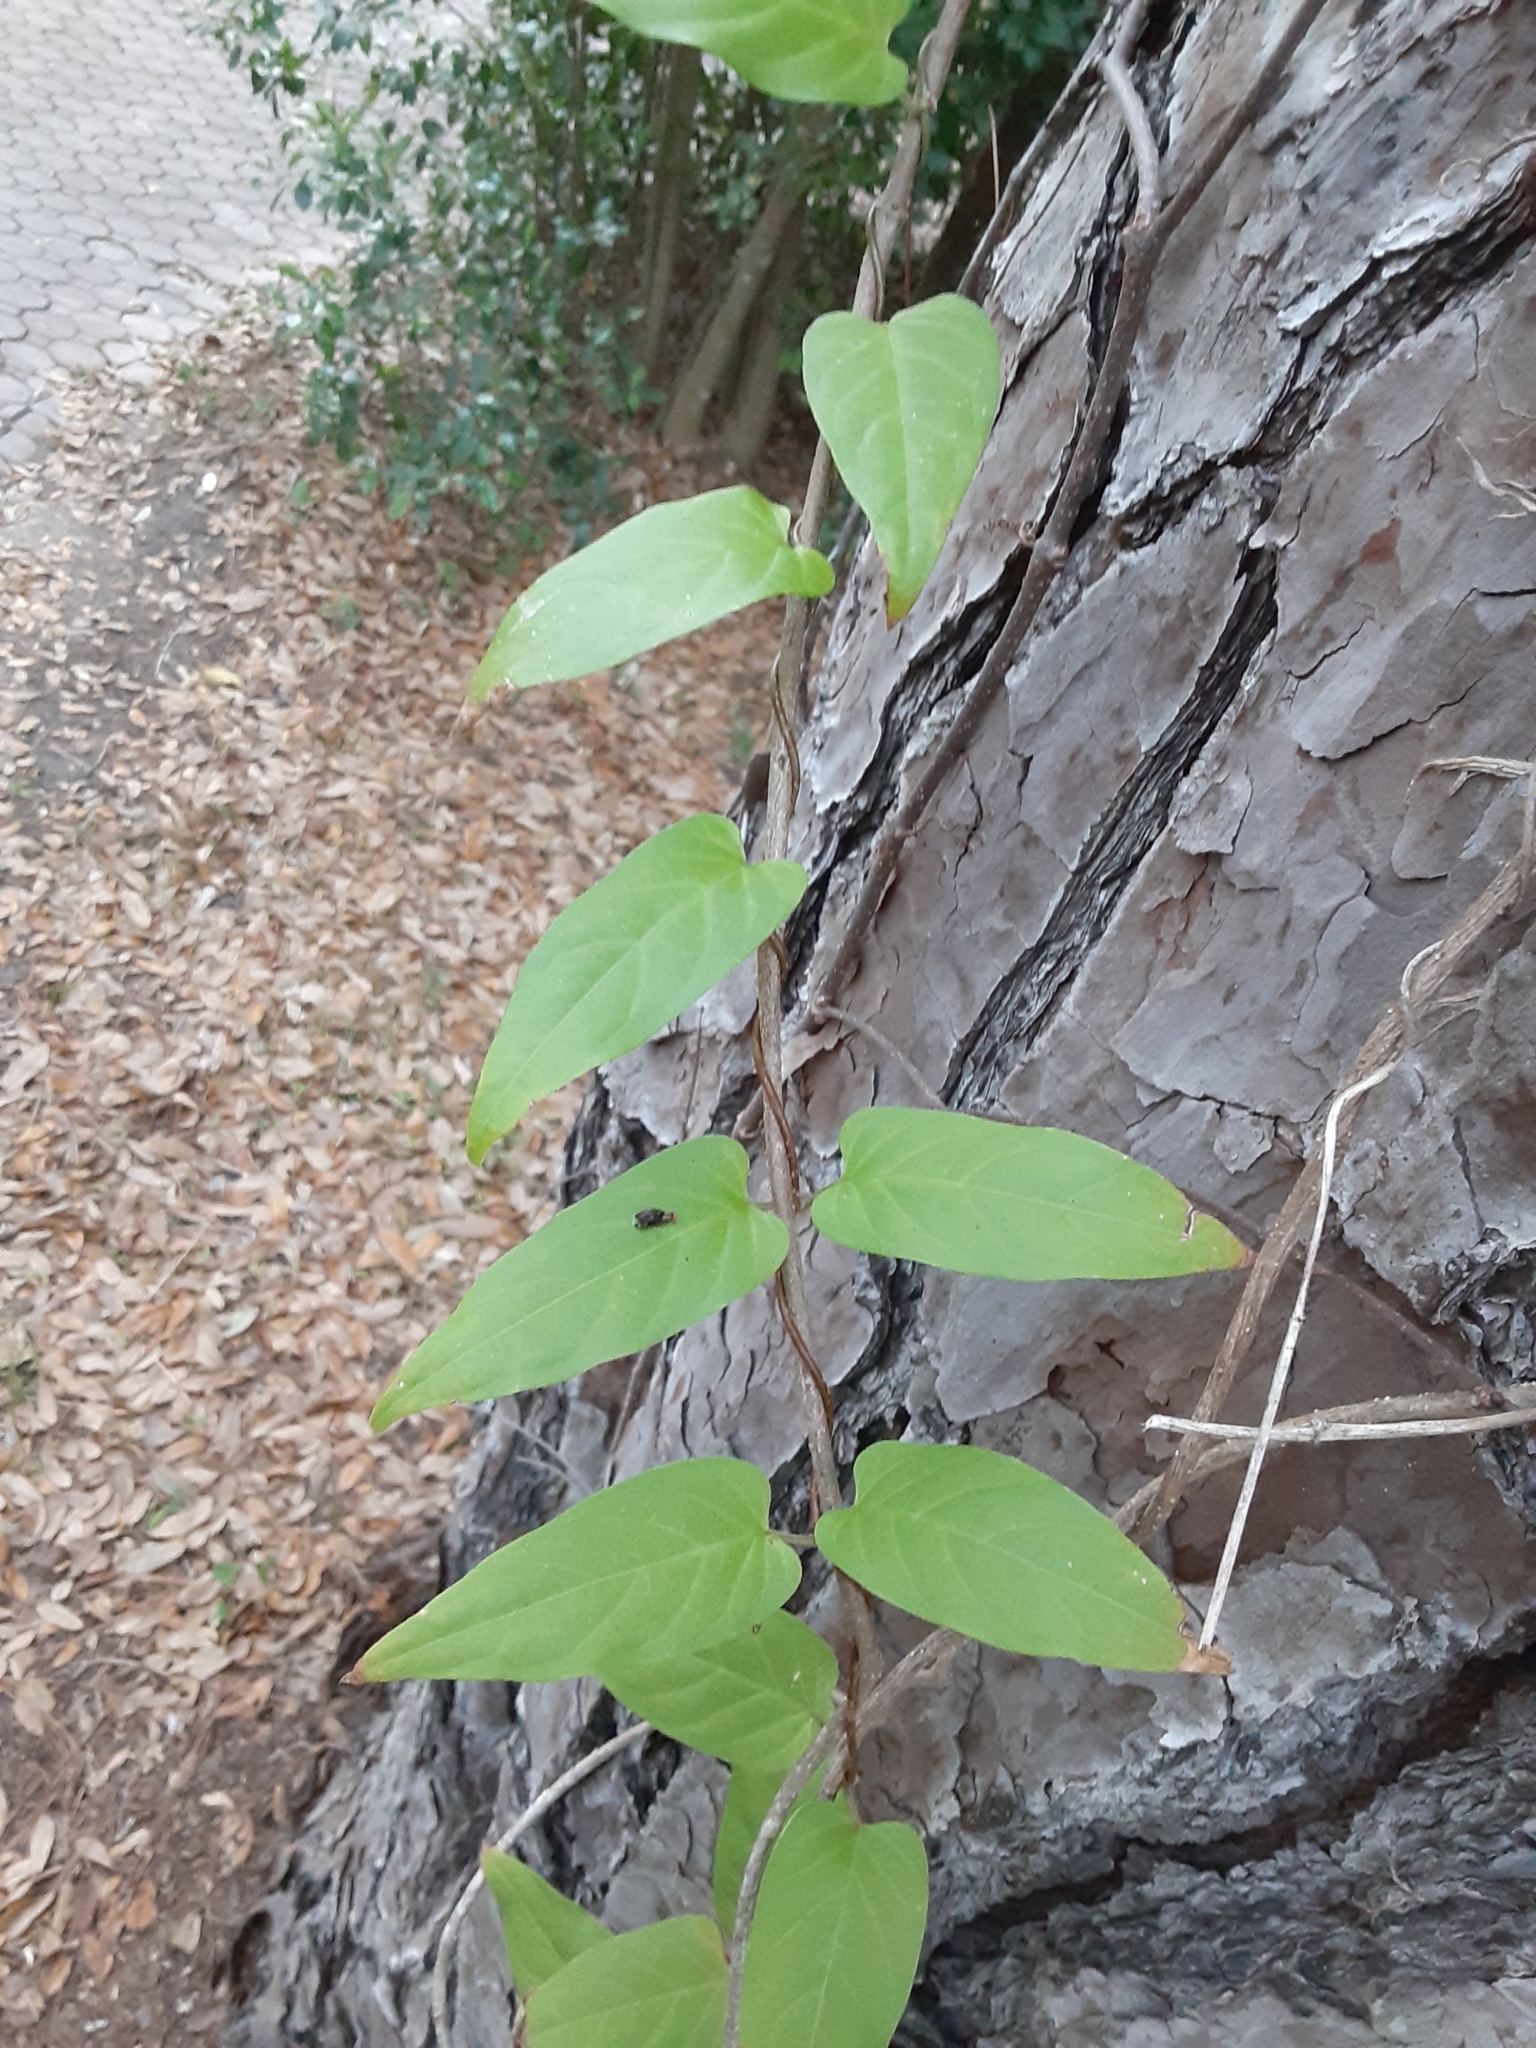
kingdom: Plantae
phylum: Tracheophyta
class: Magnoliopsida
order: Gentianales
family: Rubiaceae
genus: Paederia
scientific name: Paederia foetida
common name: Stinkvine
